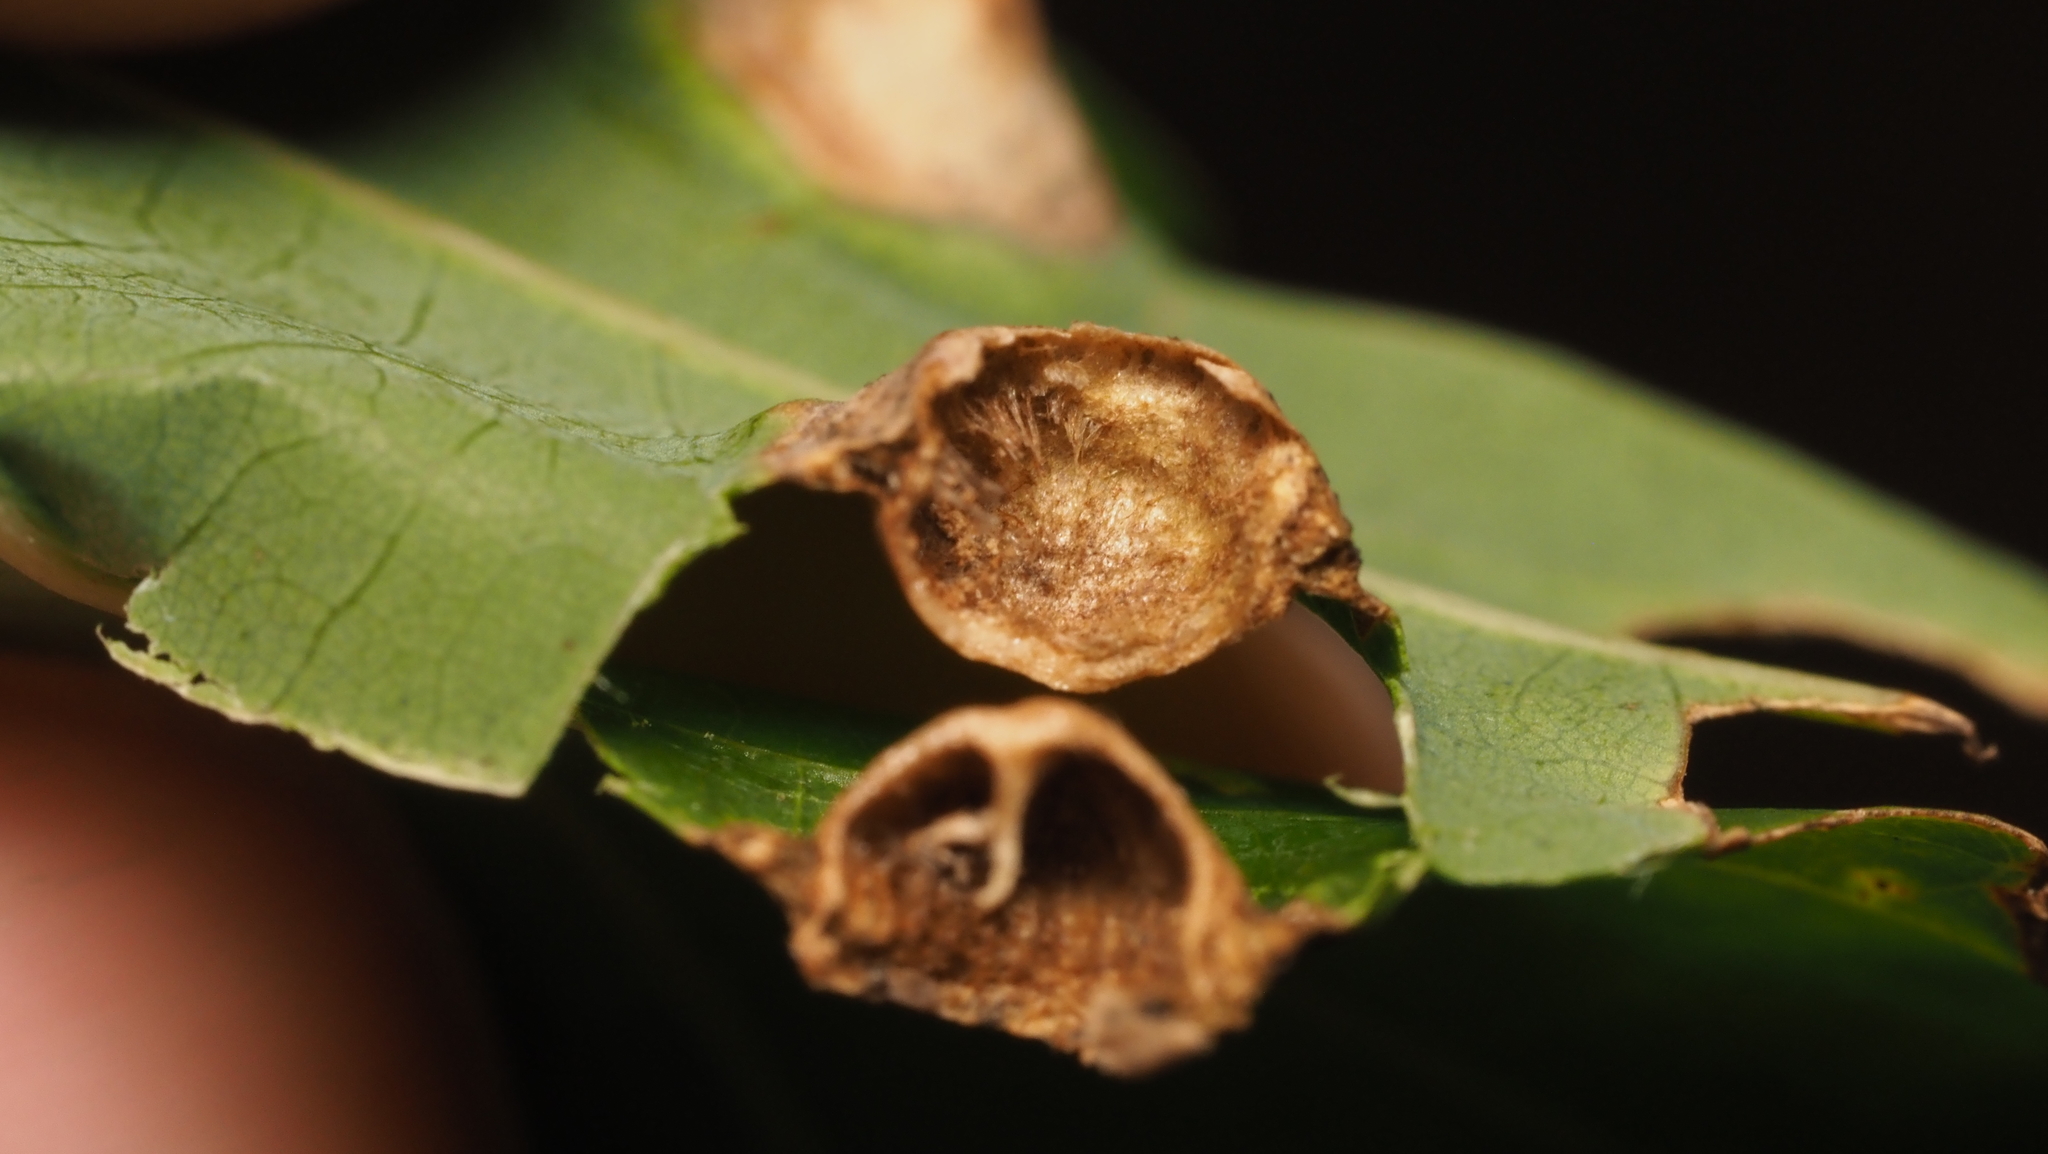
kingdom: Animalia
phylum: Arthropoda
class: Insecta
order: Hymenoptera
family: Cynipidae
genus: Callirhytis
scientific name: Callirhytis
